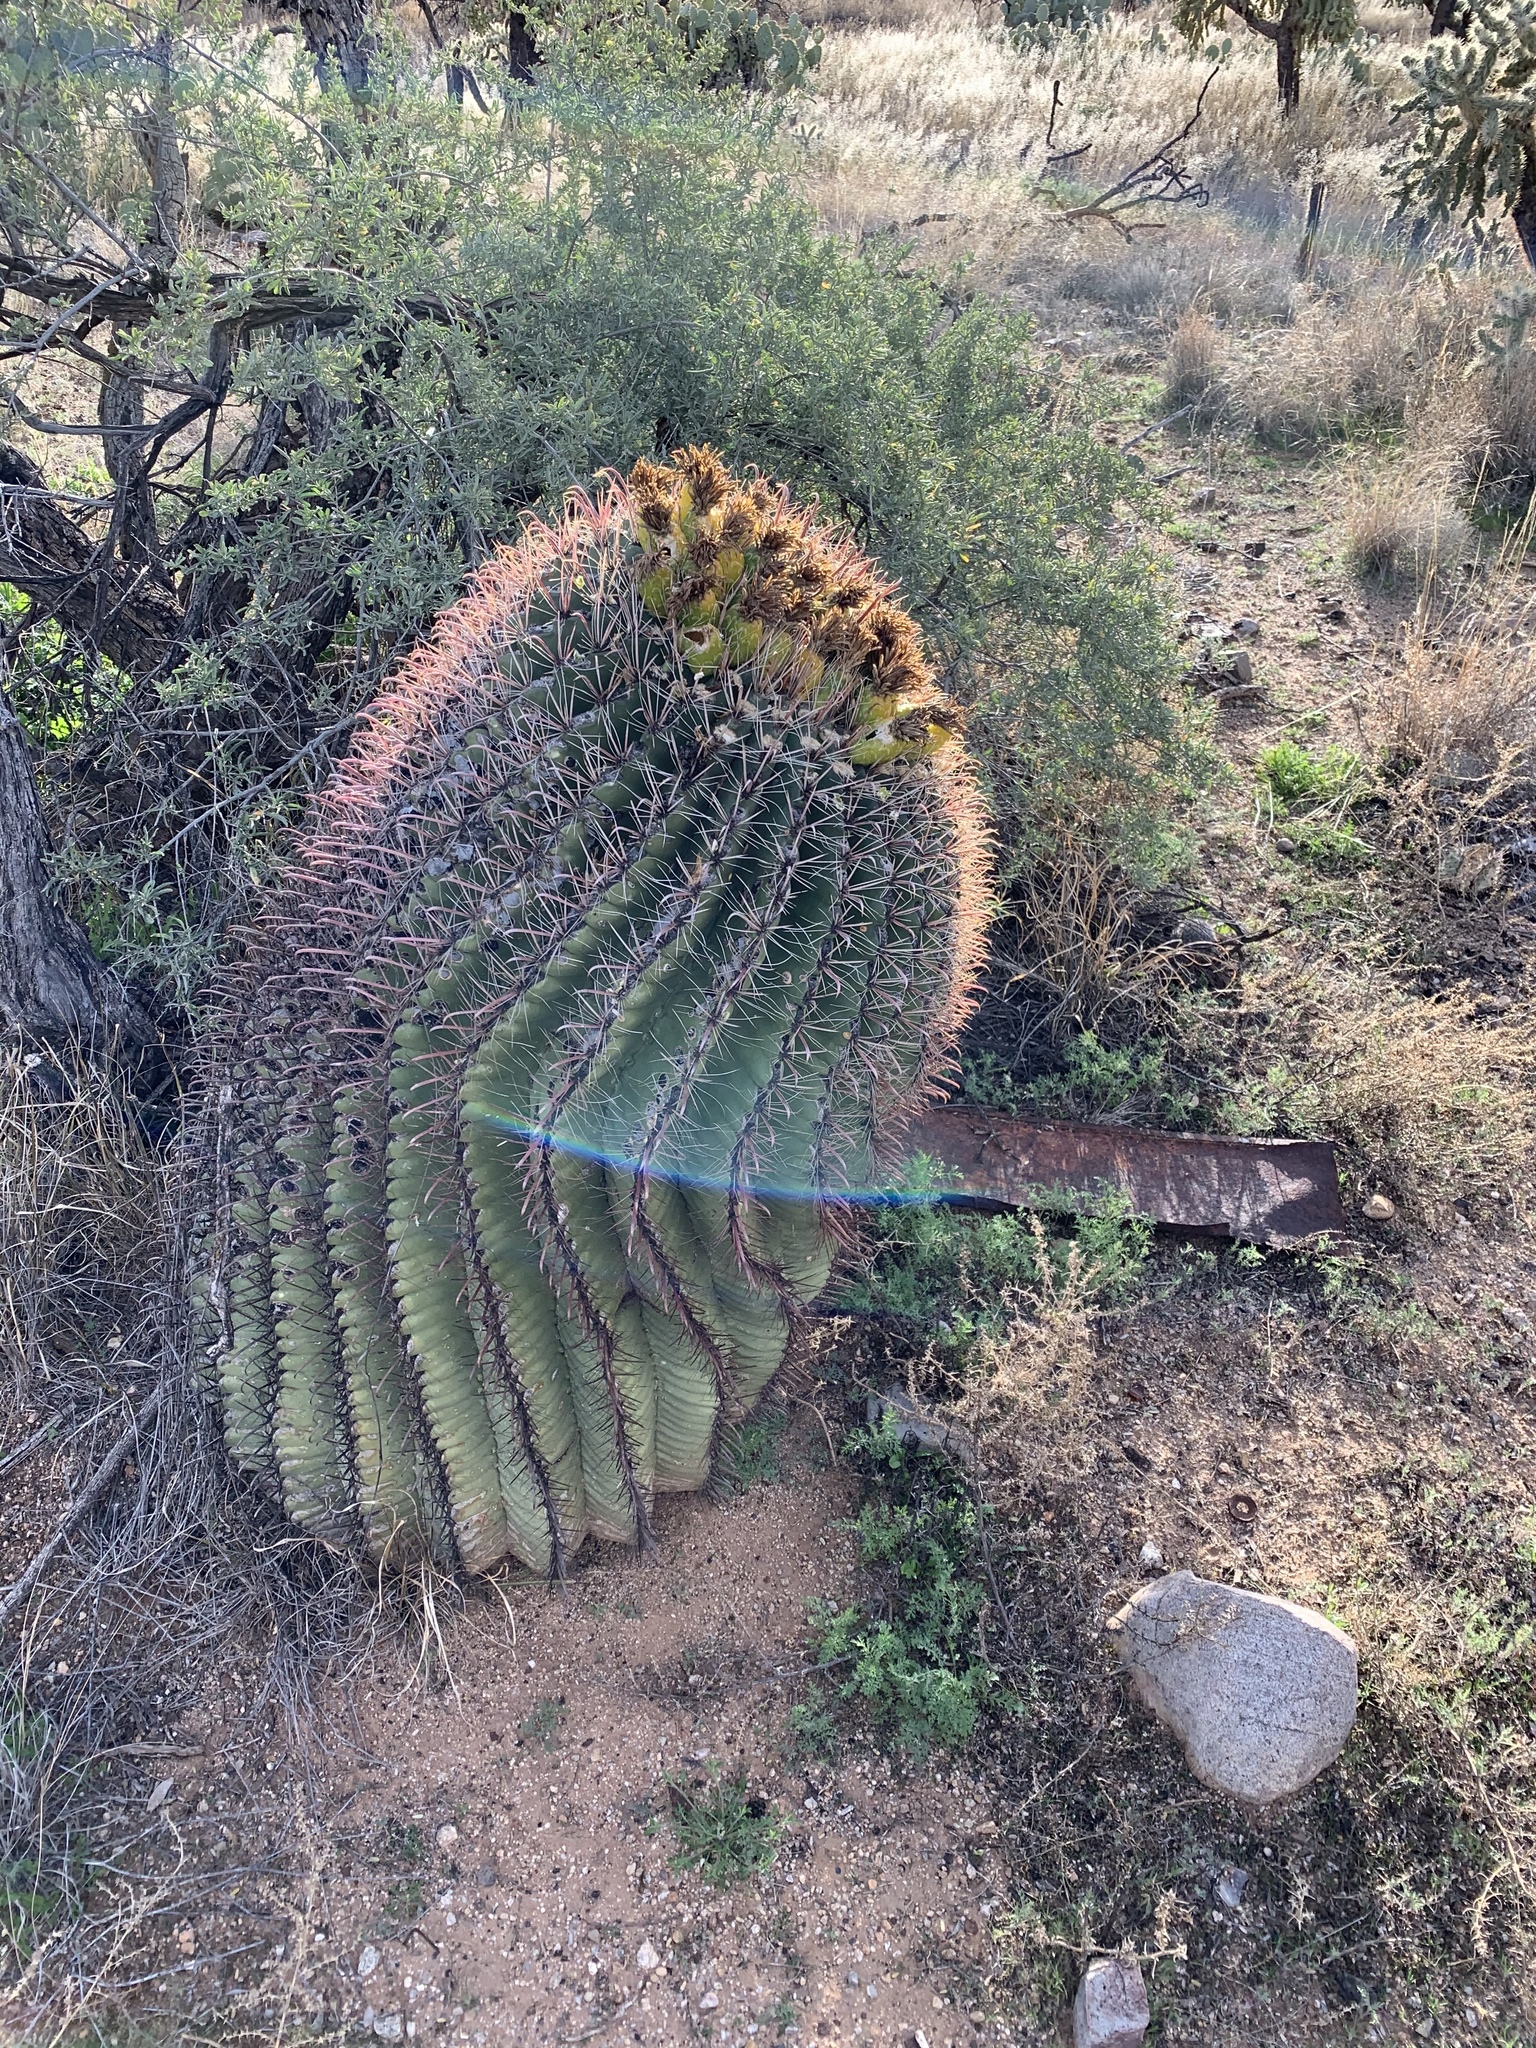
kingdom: Plantae
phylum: Tracheophyta
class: Magnoliopsida
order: Caryophyllales
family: Cactaceae
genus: Ferocactus
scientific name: Ferocactus wislizeni
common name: Candy barrel cactus
